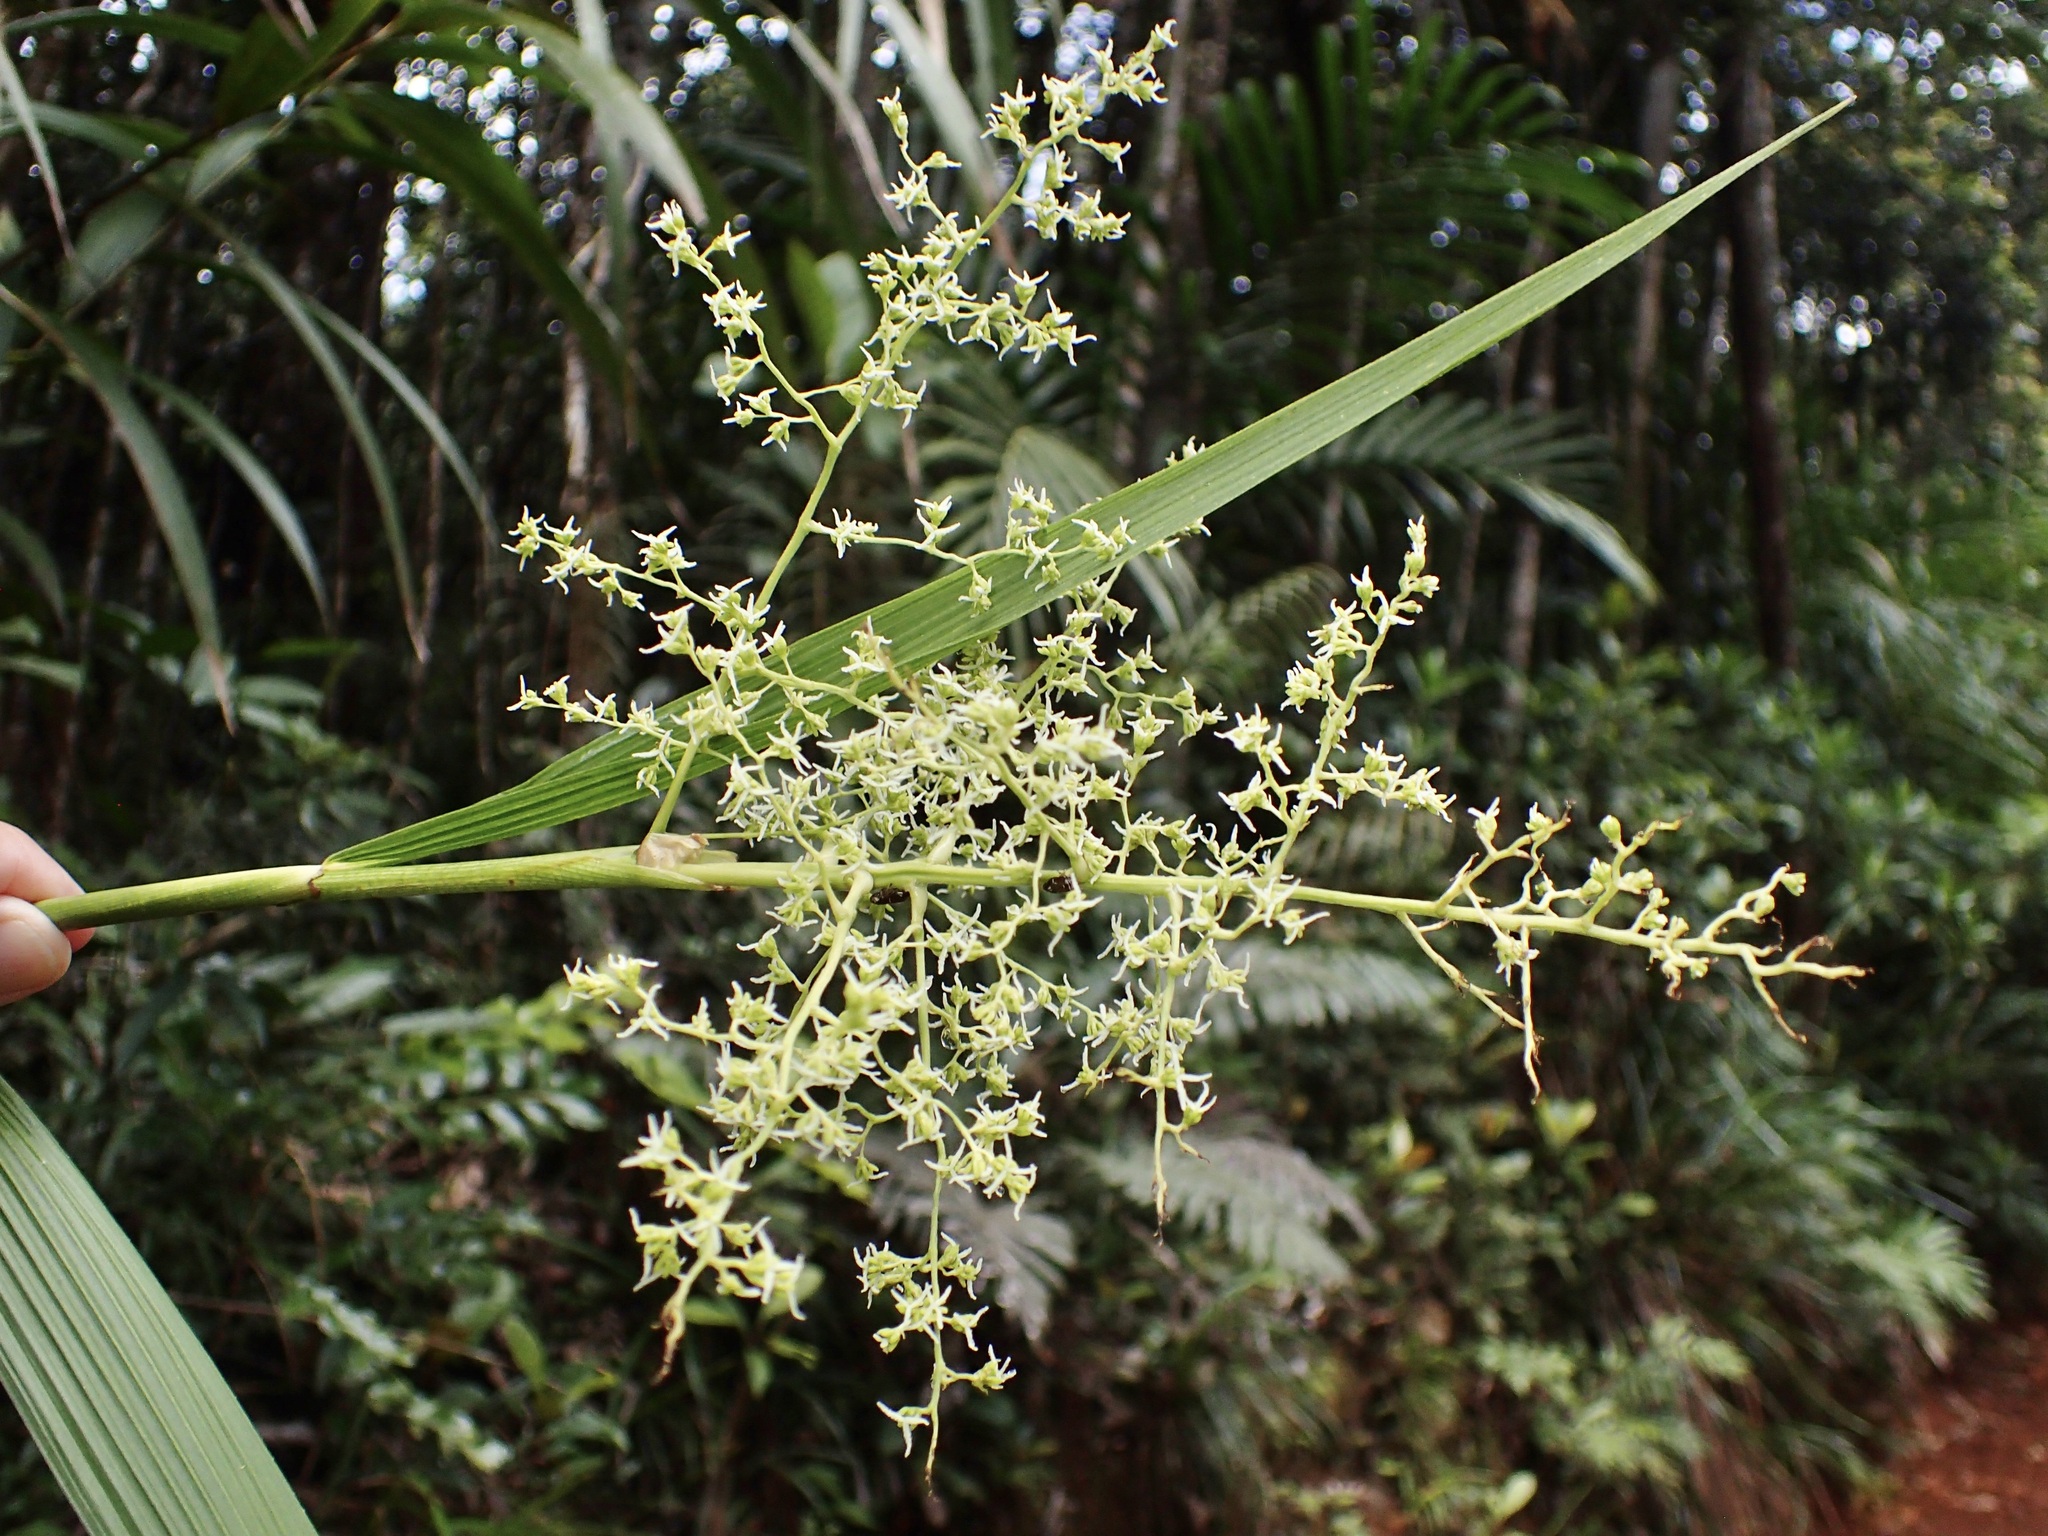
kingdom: Plantae
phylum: Tracheophyta
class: Liliopsida
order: Poales
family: Joinvilleaceae
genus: Joinvillea
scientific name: Joinvillea plicata
